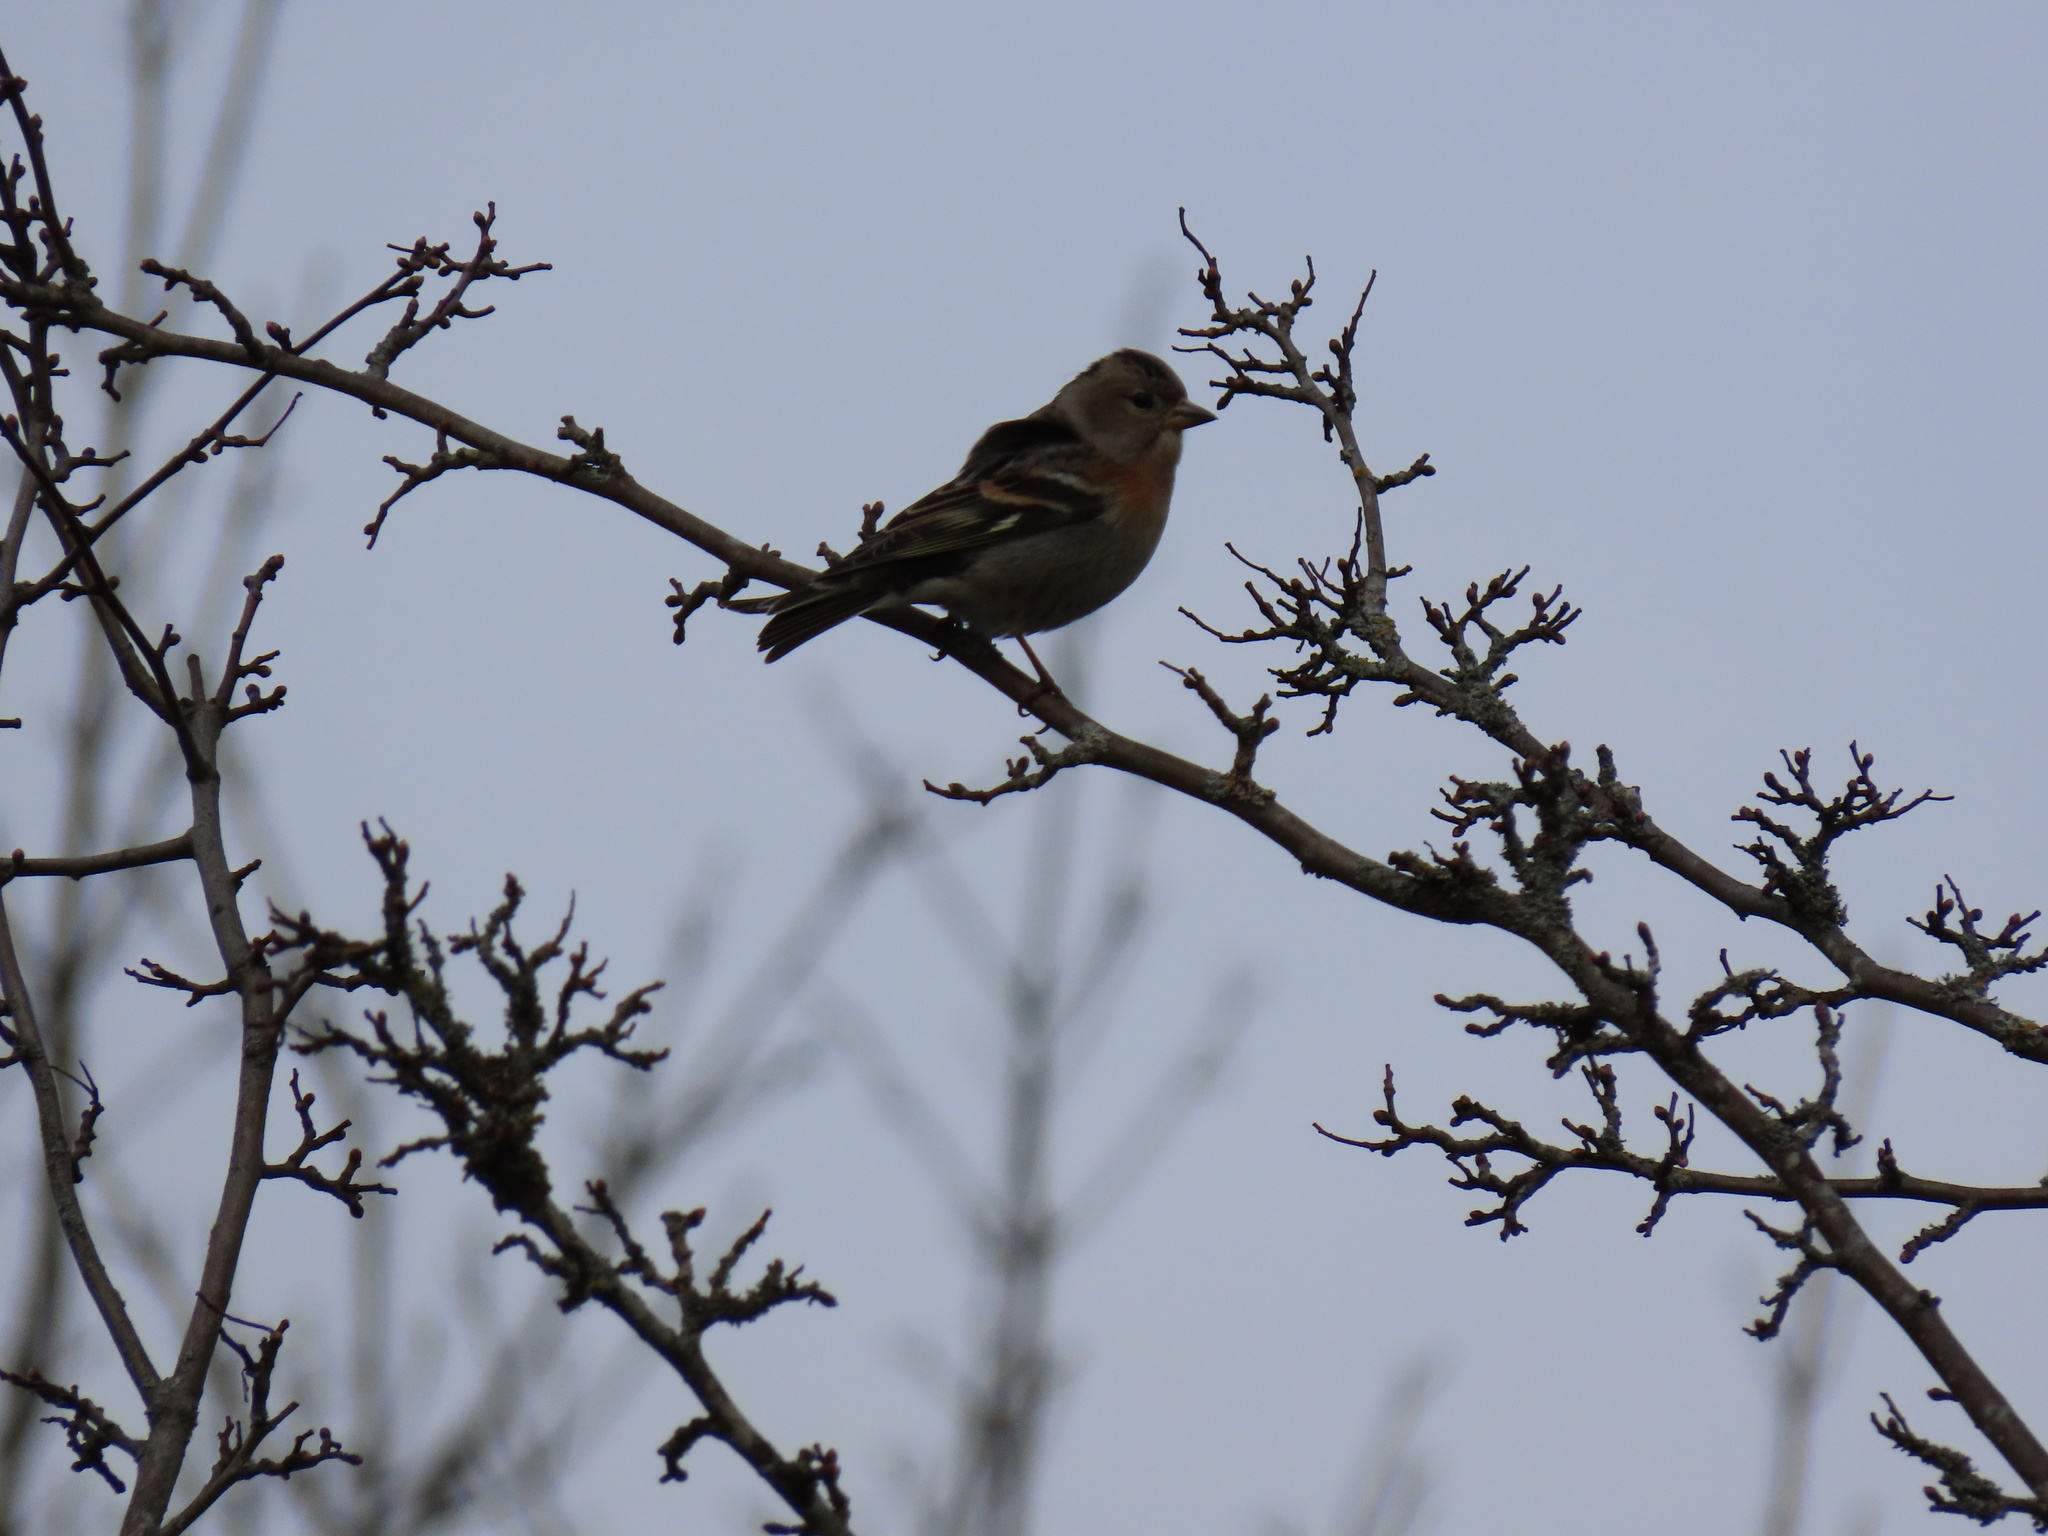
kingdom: Animalia
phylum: Chordata
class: Aves
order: Passeriformes
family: Fringillidae
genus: Fringilla
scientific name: Fringilla montifringilla
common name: Brambling
